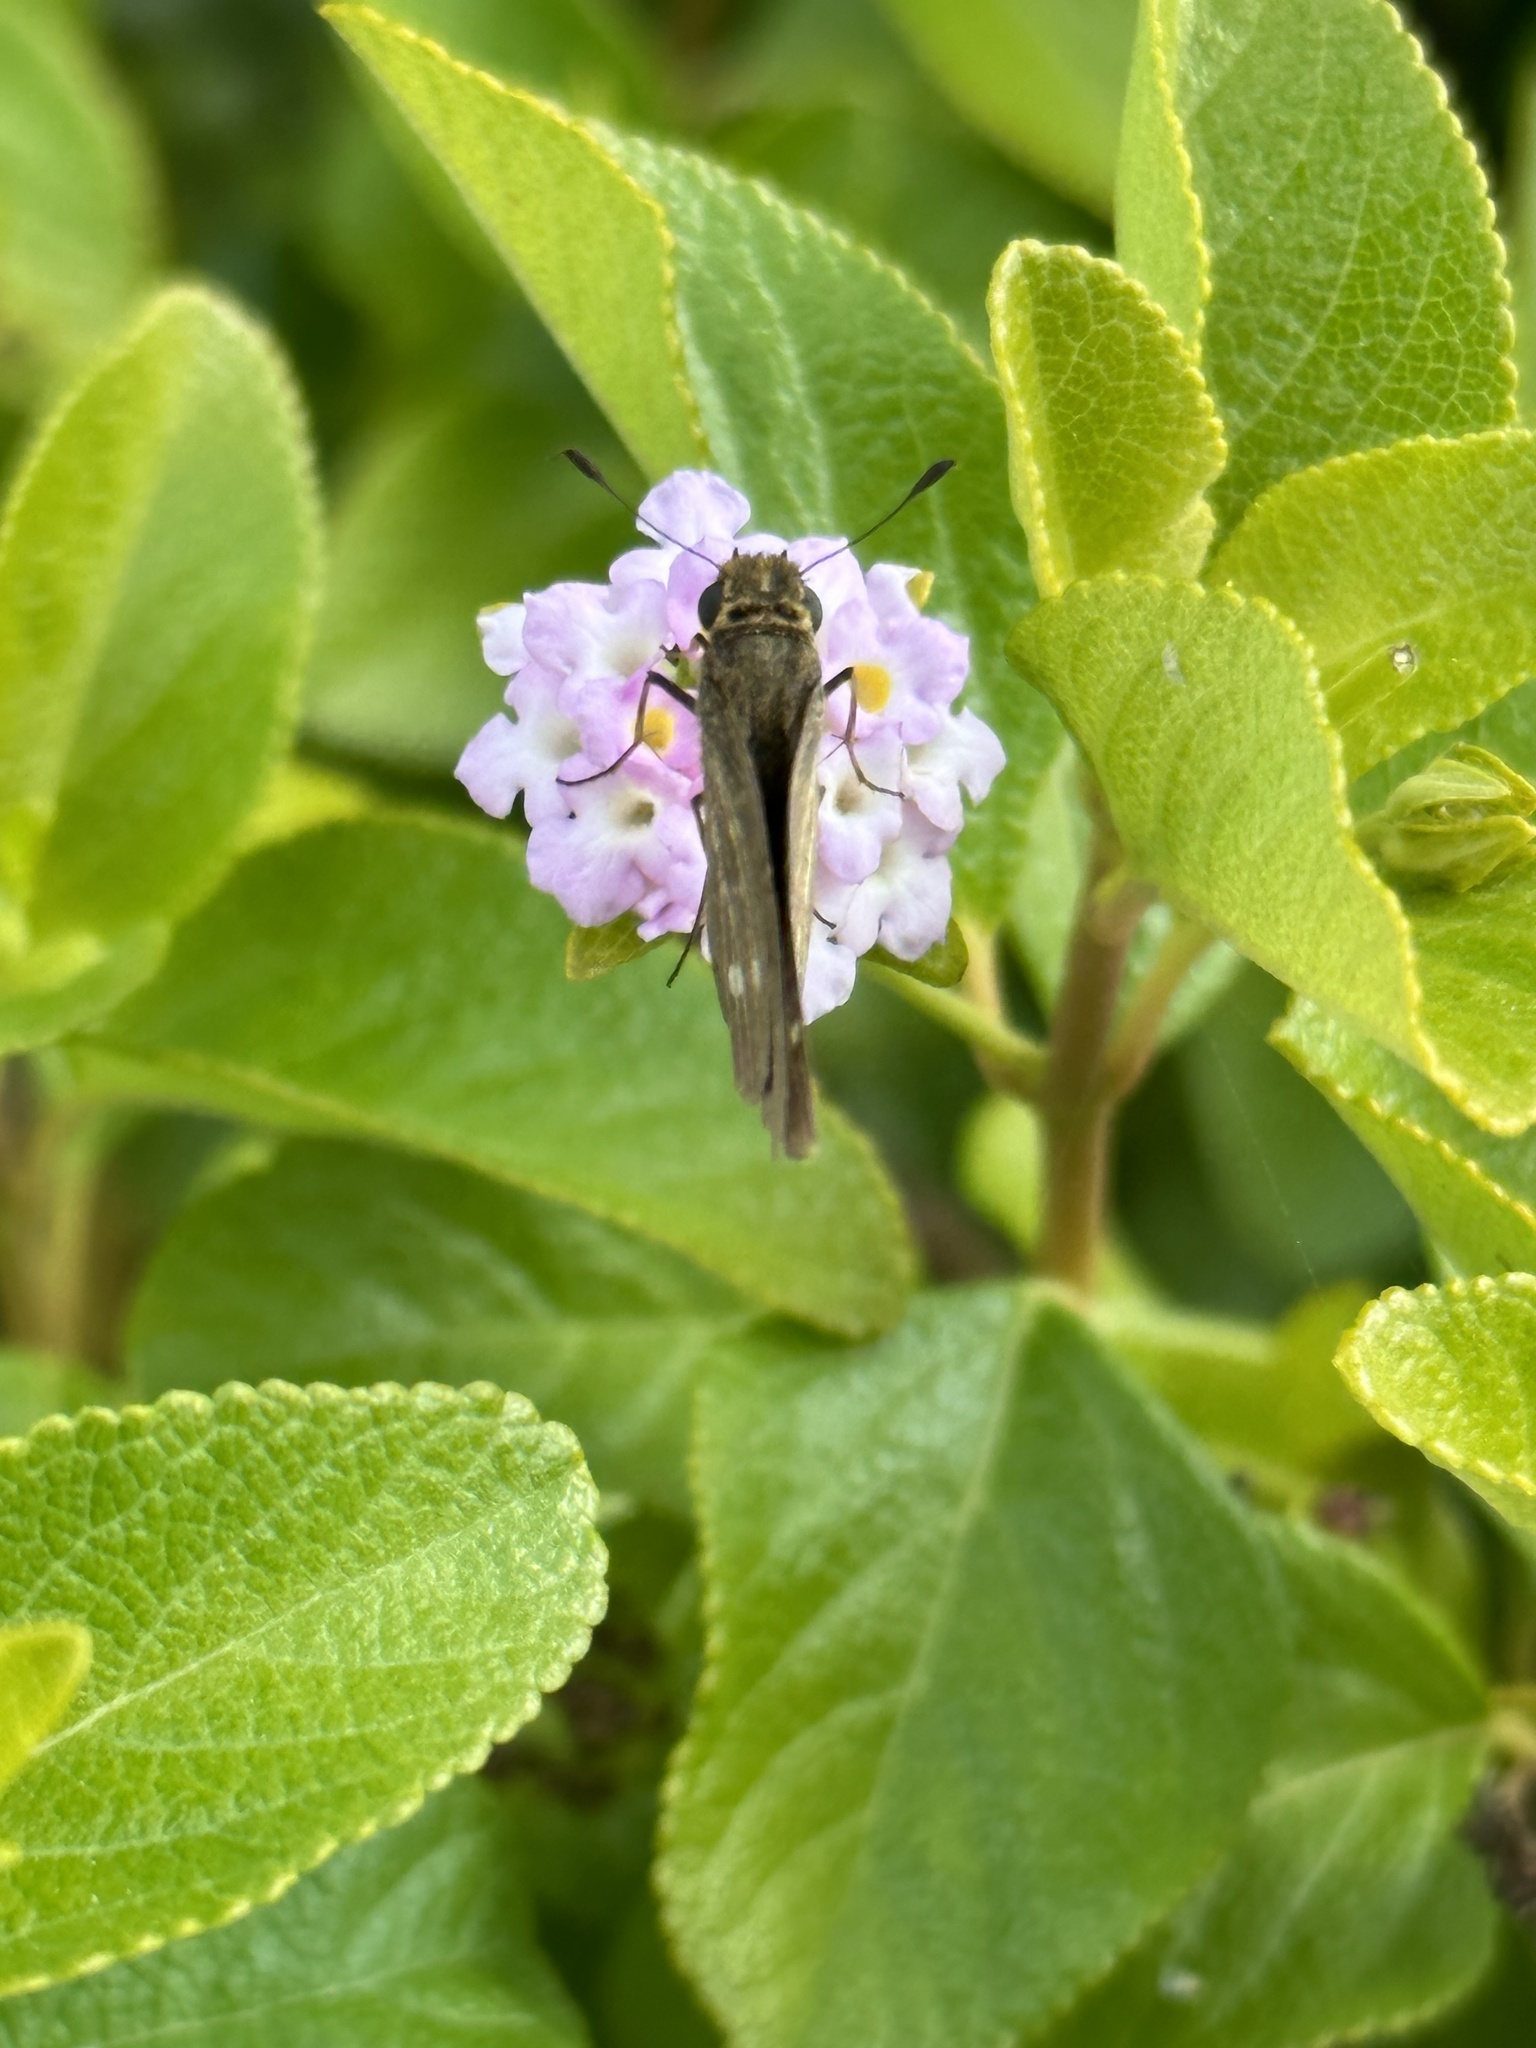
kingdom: Animalia
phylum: Arthropoda
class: Insecta
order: Lepidoptera
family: Hesperiidae
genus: Panoquina
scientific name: Panoquina panoquinoides
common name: Beach skipper
